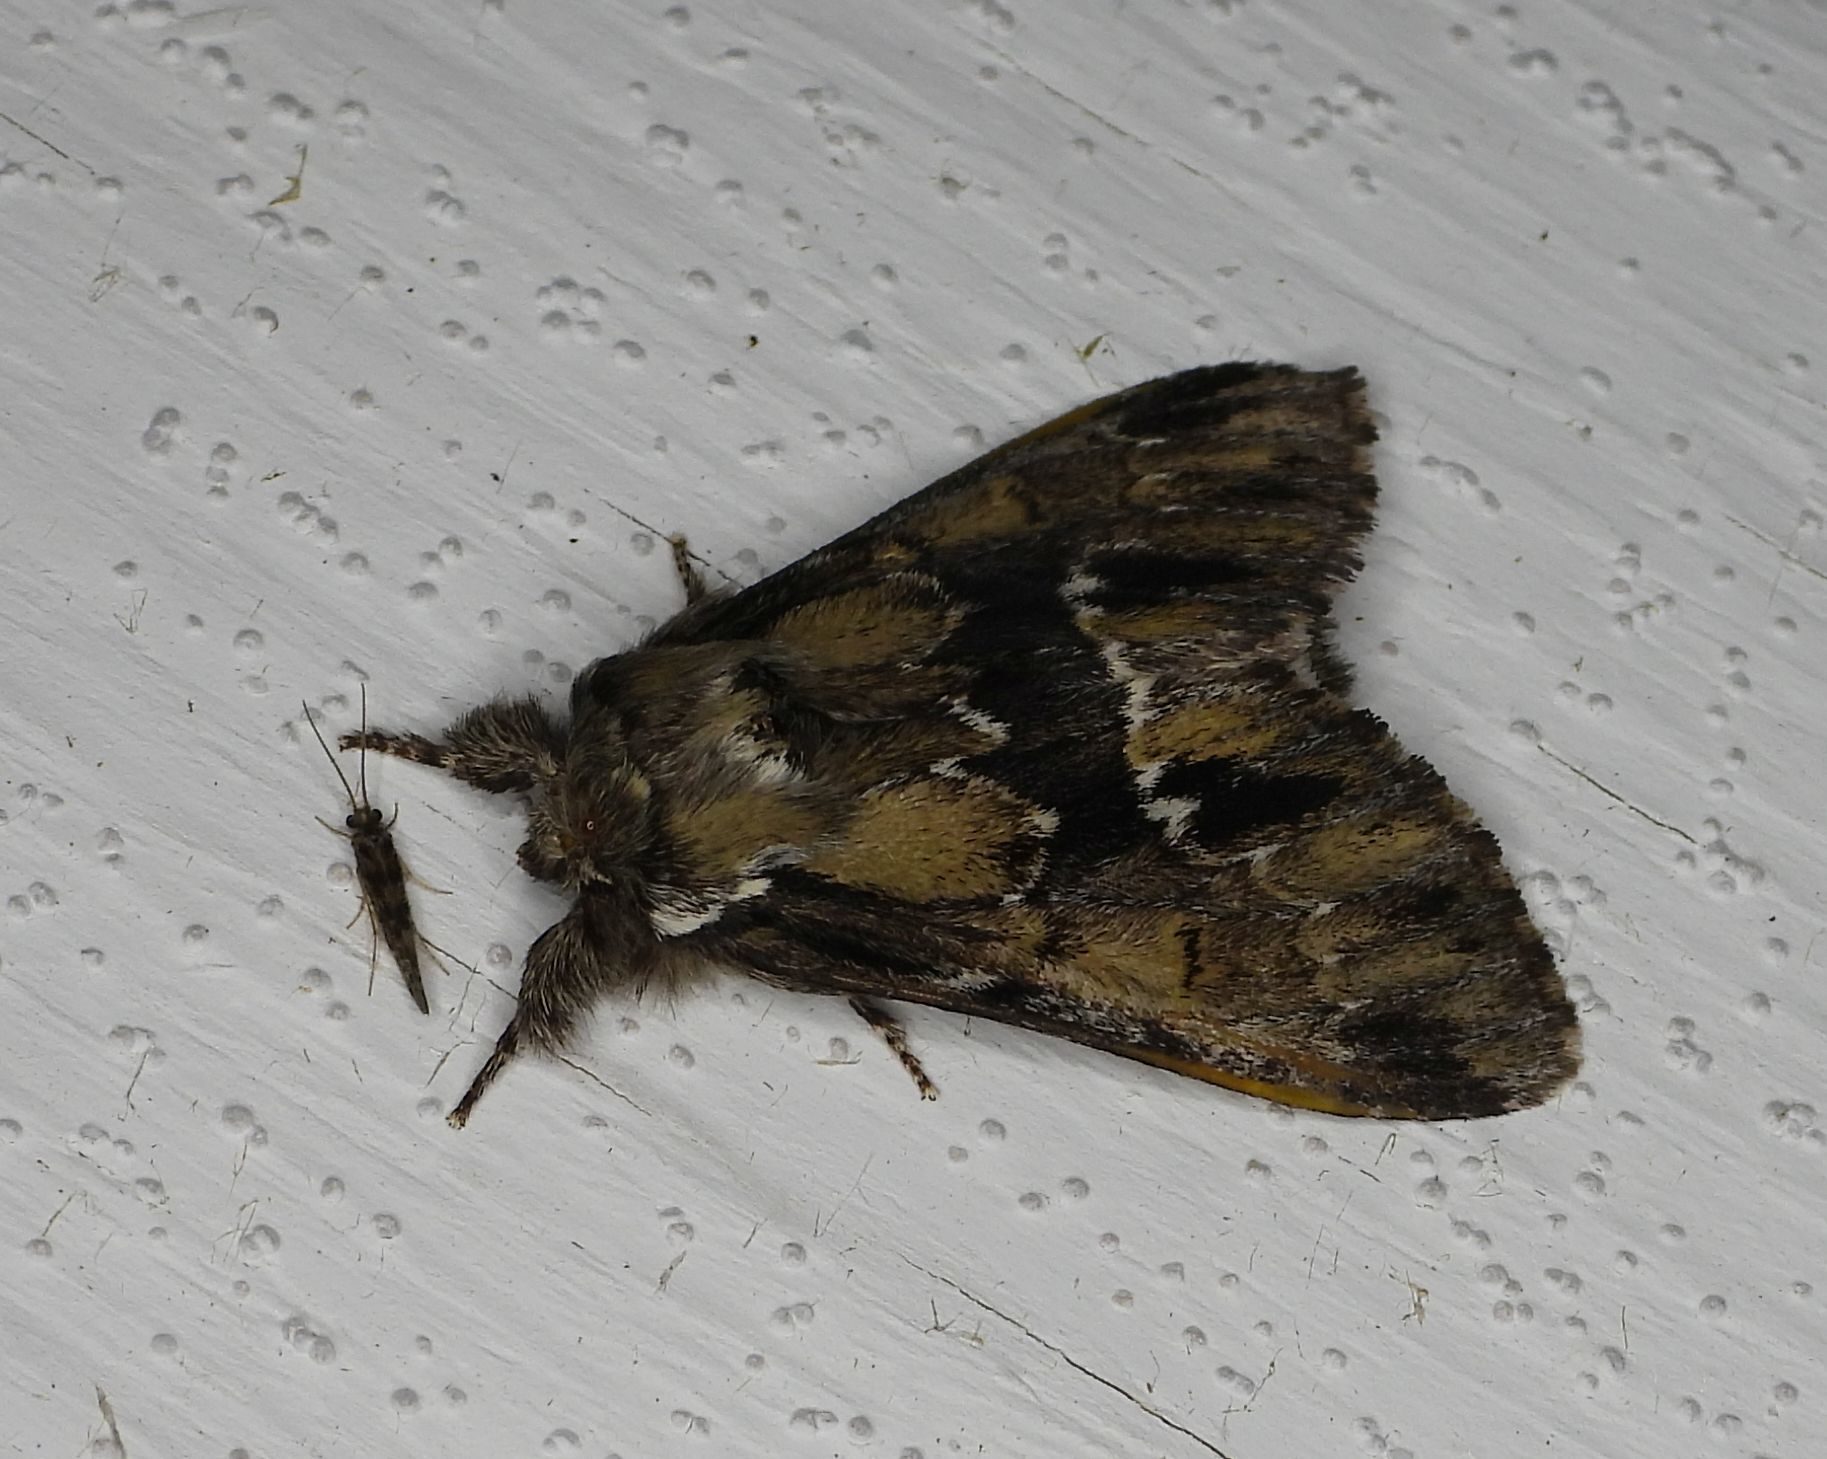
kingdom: Animalia
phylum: Arthropoda
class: Insecta
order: Lepidoptera
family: Notodontidae
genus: Paraeschra
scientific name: Paraeschra georgica
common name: Georgian prominent
